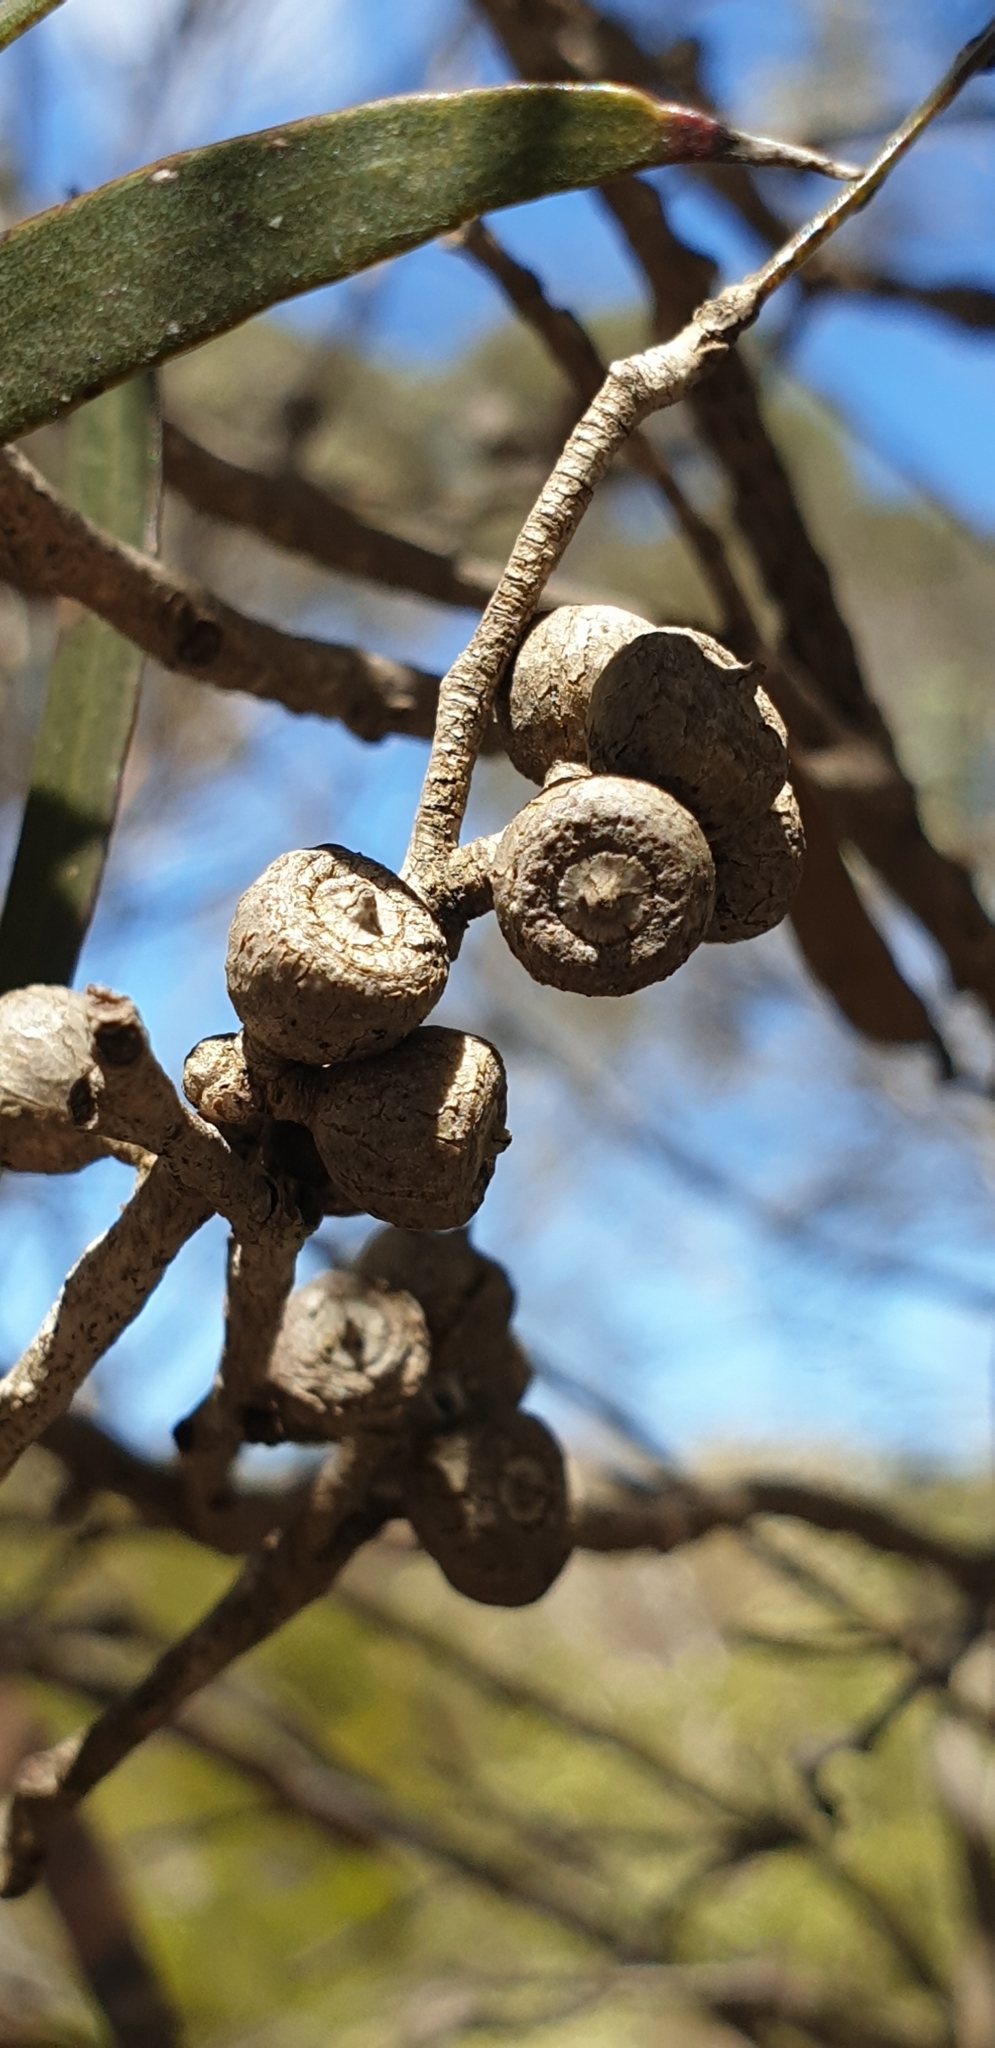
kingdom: Plantae
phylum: Tracheophyta
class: Magnoliopsida
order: Myrtales
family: Myrtaceae
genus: Eucalyptus
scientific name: Eucalyptus cneorifolia
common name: Narrow-leaf mallee
